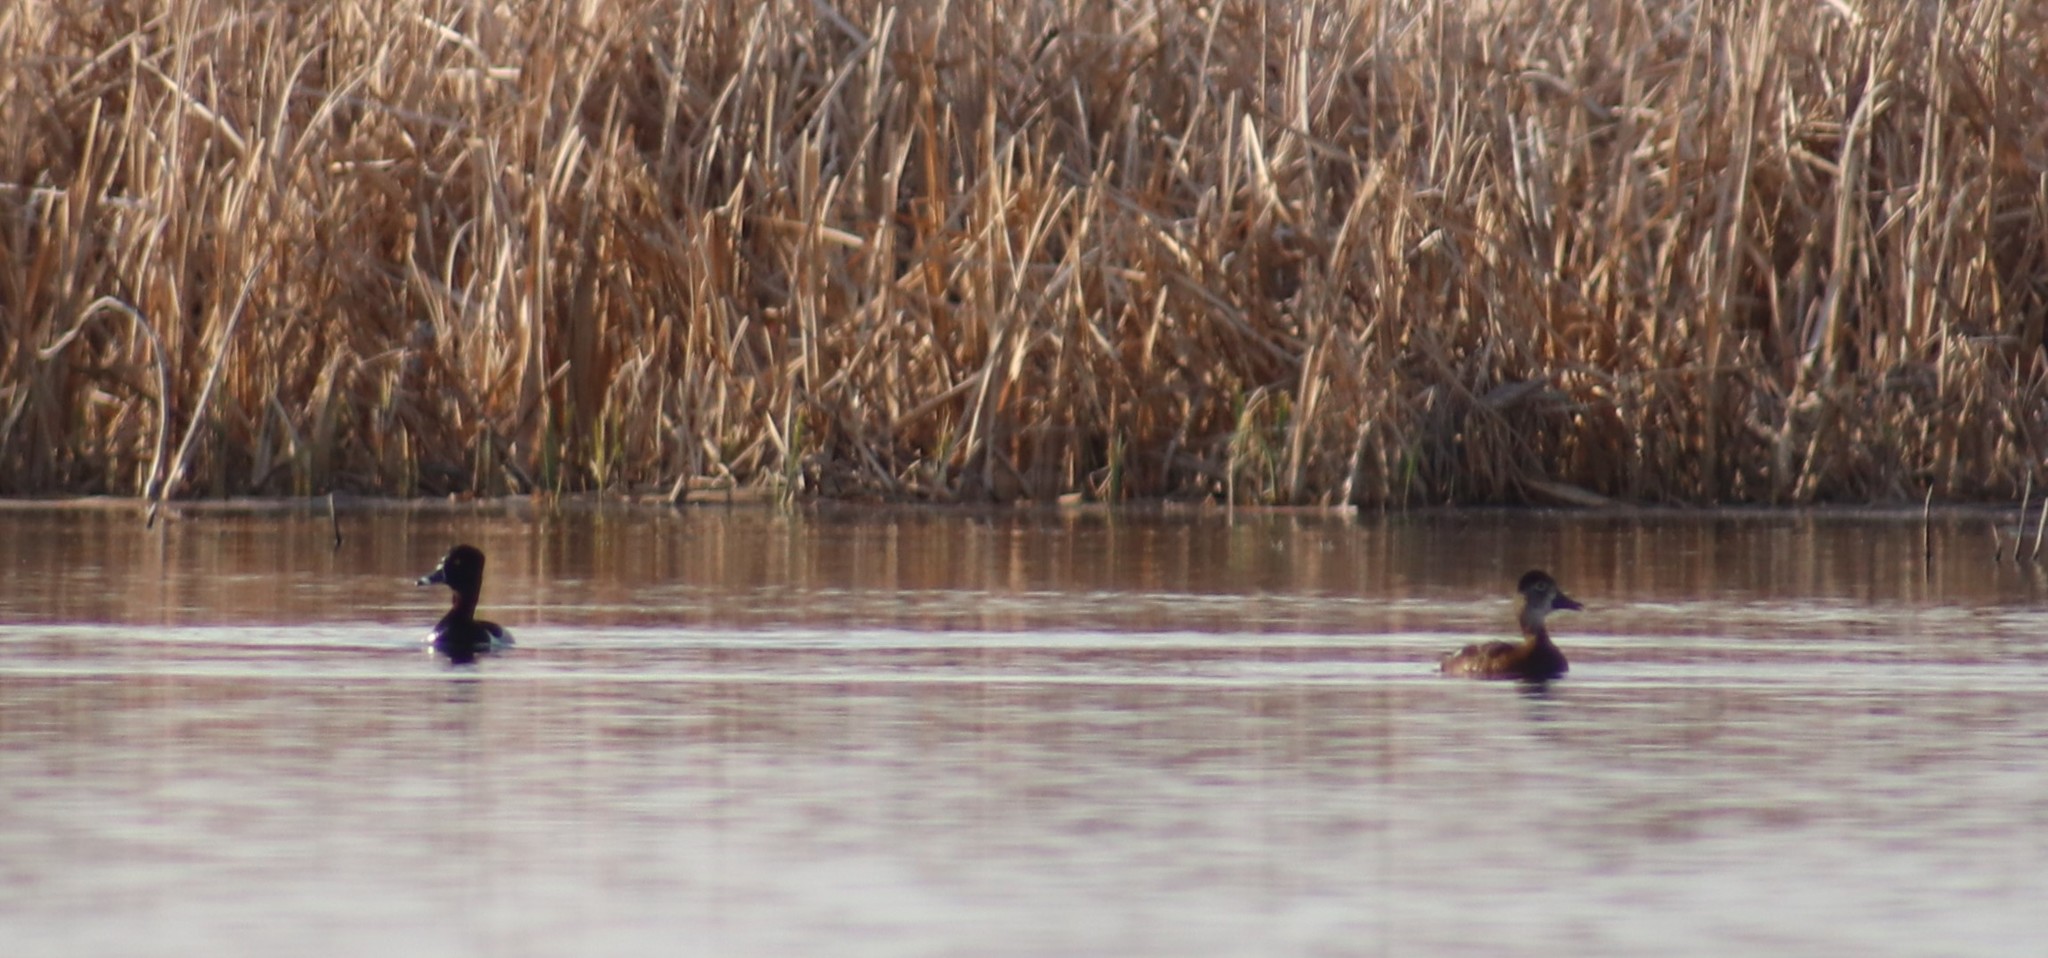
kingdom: Animalia
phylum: Chordata
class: Aves
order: Anseriformes
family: Anatidae
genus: Aythya
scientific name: Aythya collaris
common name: Ring-necked duck
